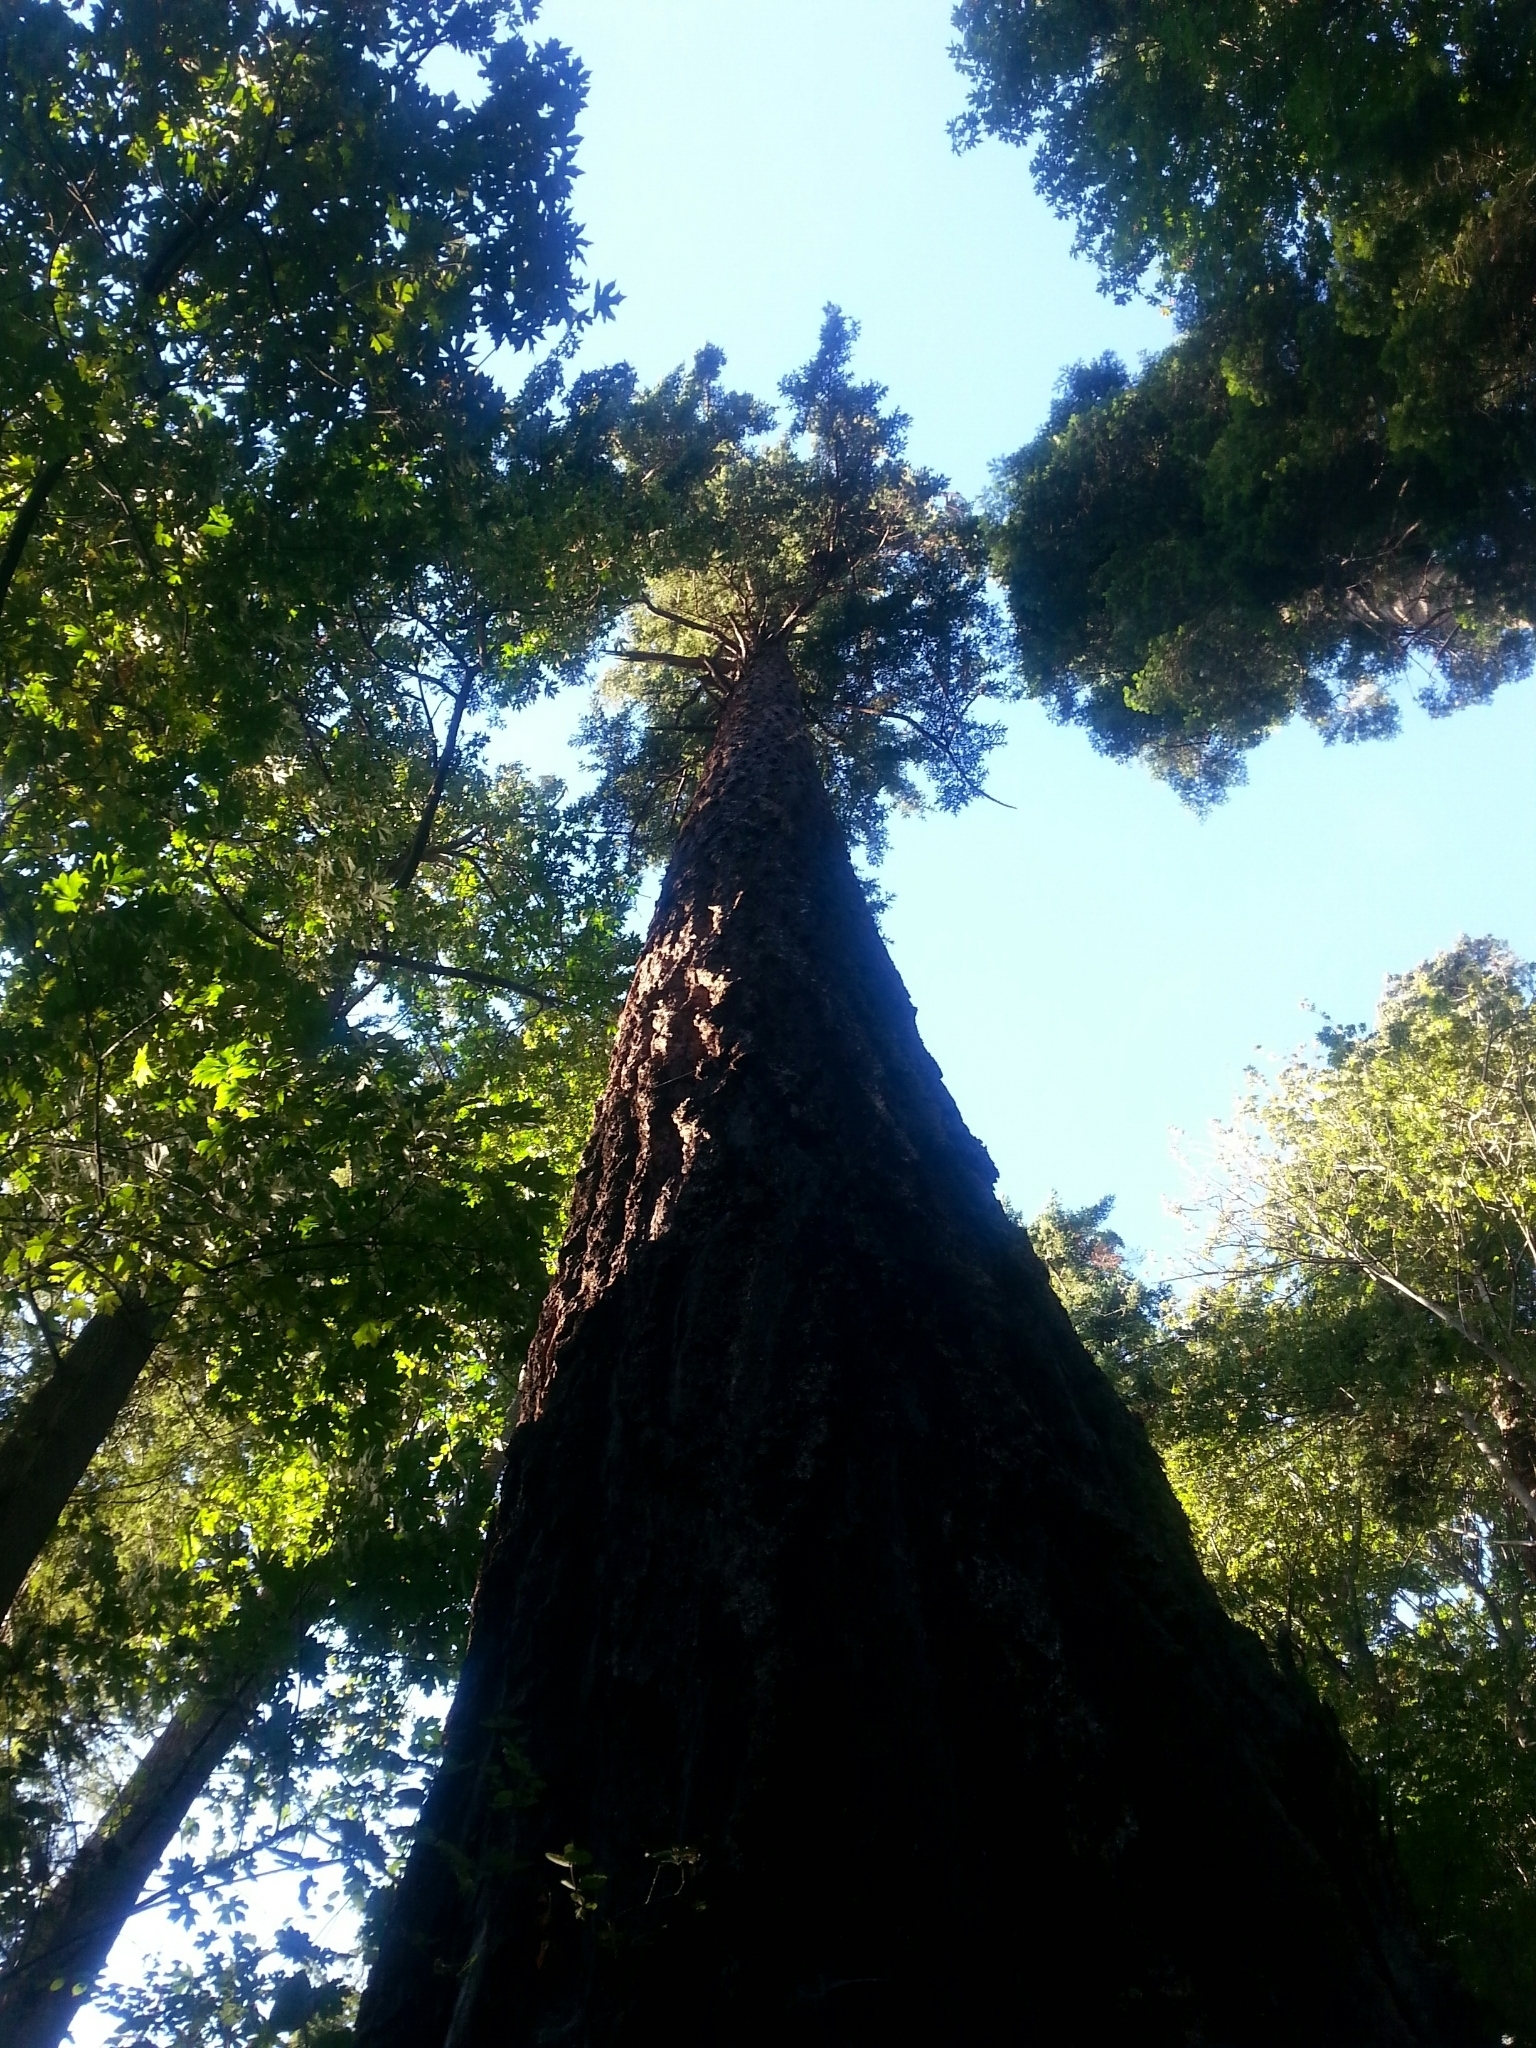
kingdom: Plantae
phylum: Tracheophyta
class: Pinopsida
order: Pinales
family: Pinaceae
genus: Pseudotsuga
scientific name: Pseudotsuga menziesii
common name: Douglas fir
